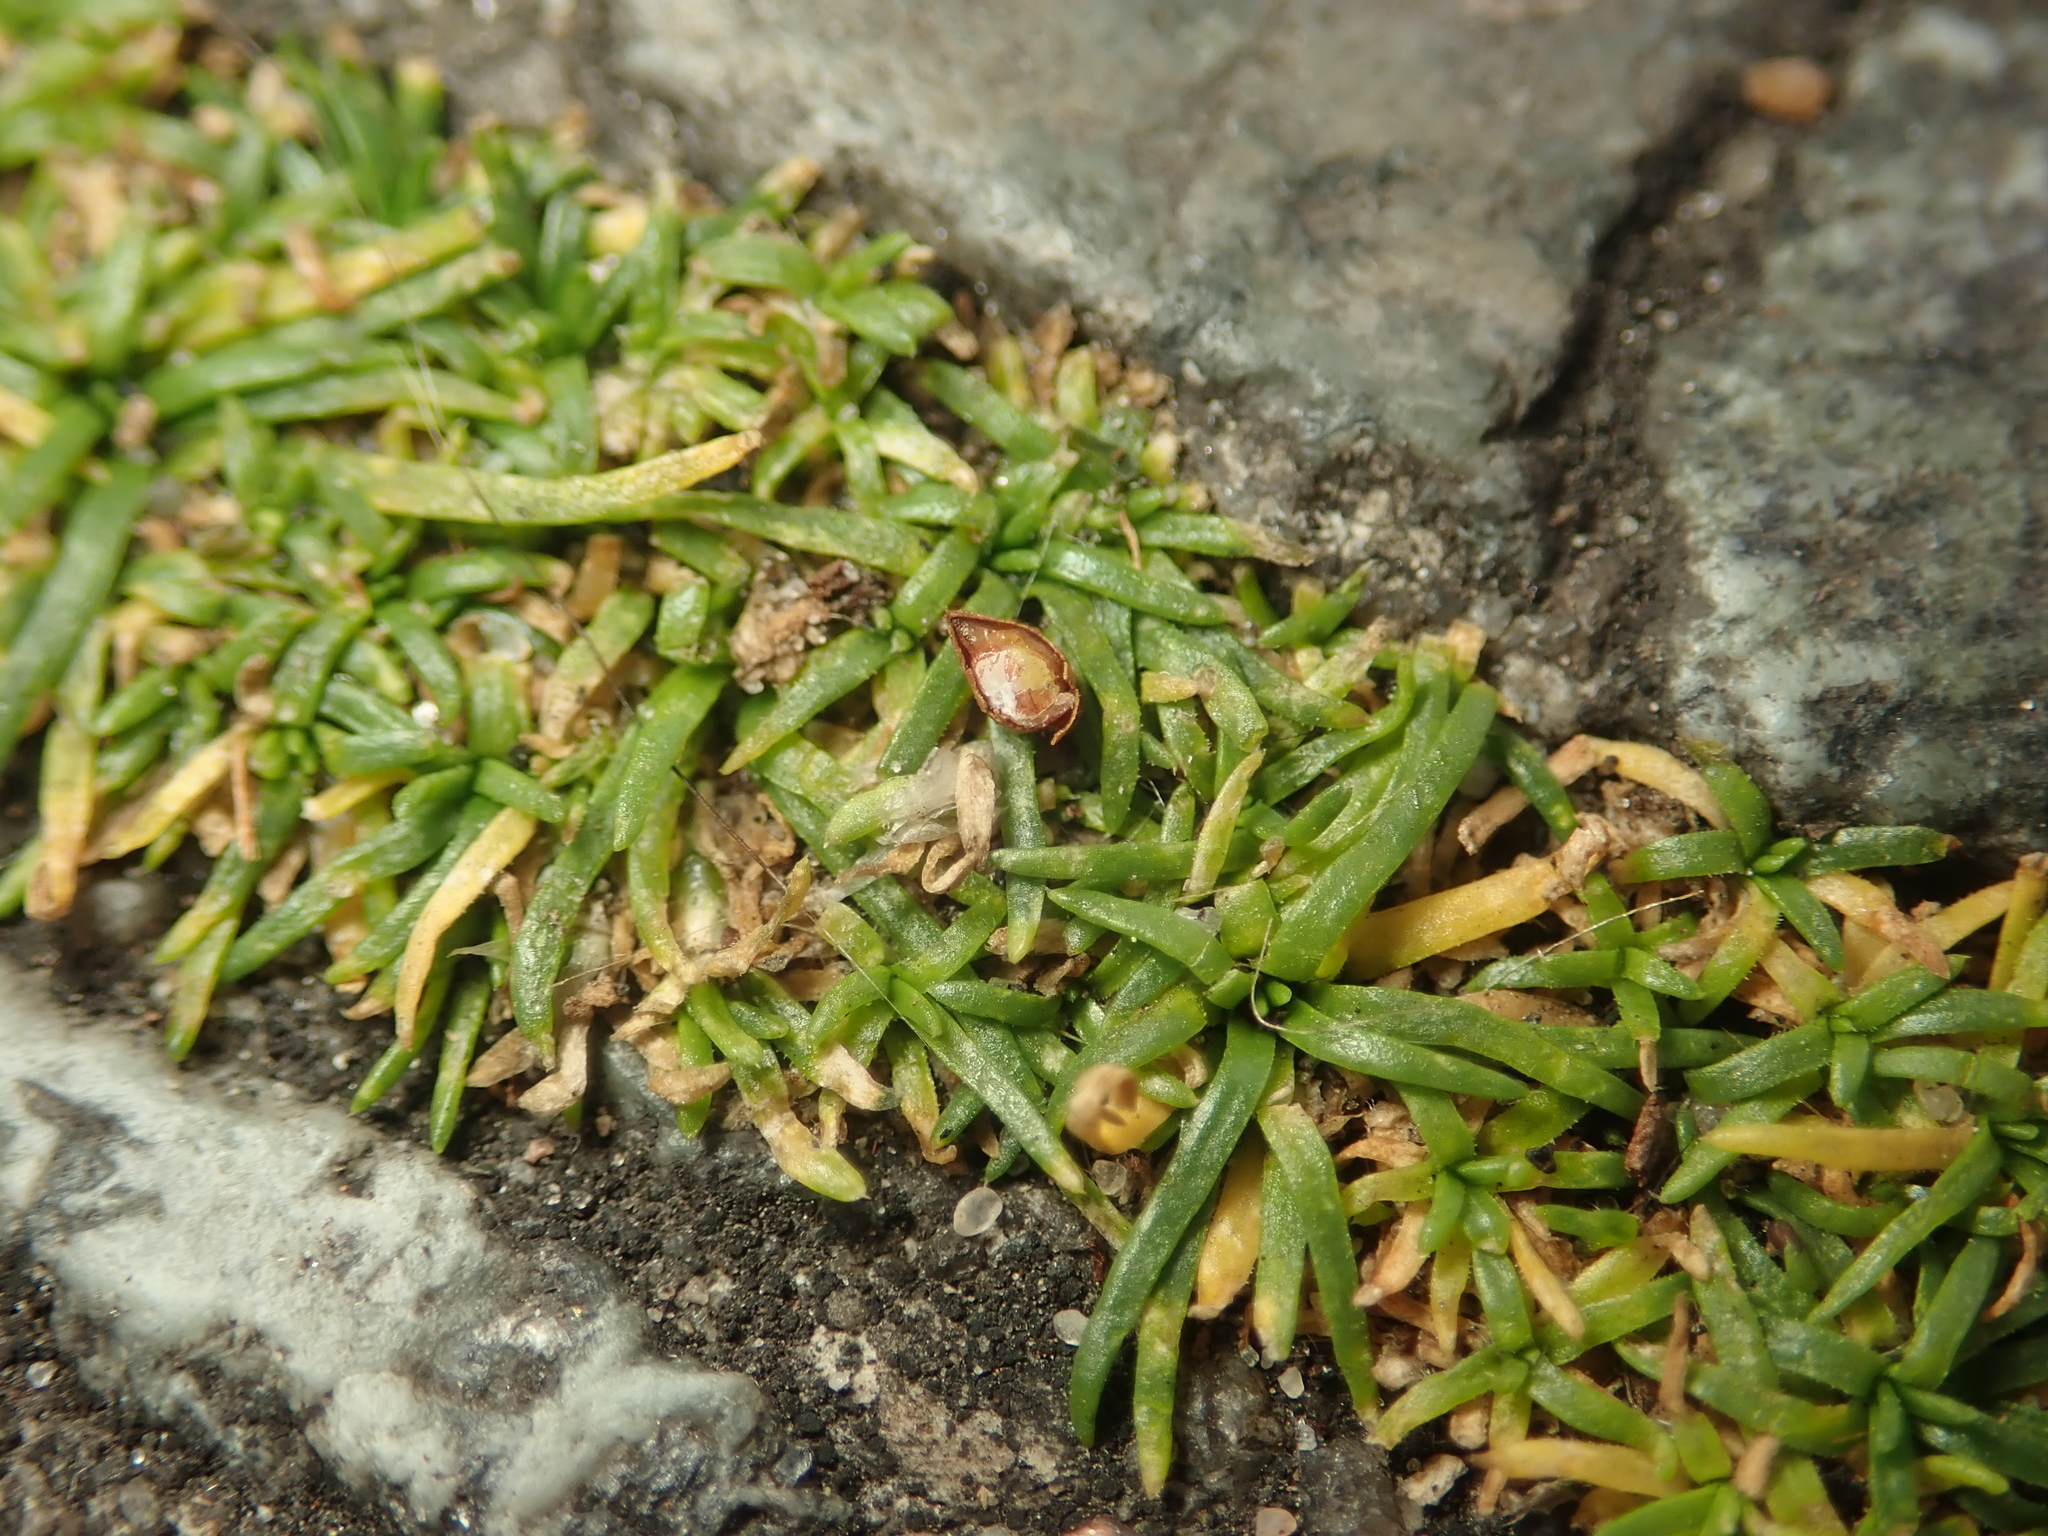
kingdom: Plantae
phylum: Tracheophyta
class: Magnoliopsida
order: Caryophyllales
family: Caryophyllaceae
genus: Sagina
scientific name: Sagina procumbens
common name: Procumbent pearlwort
